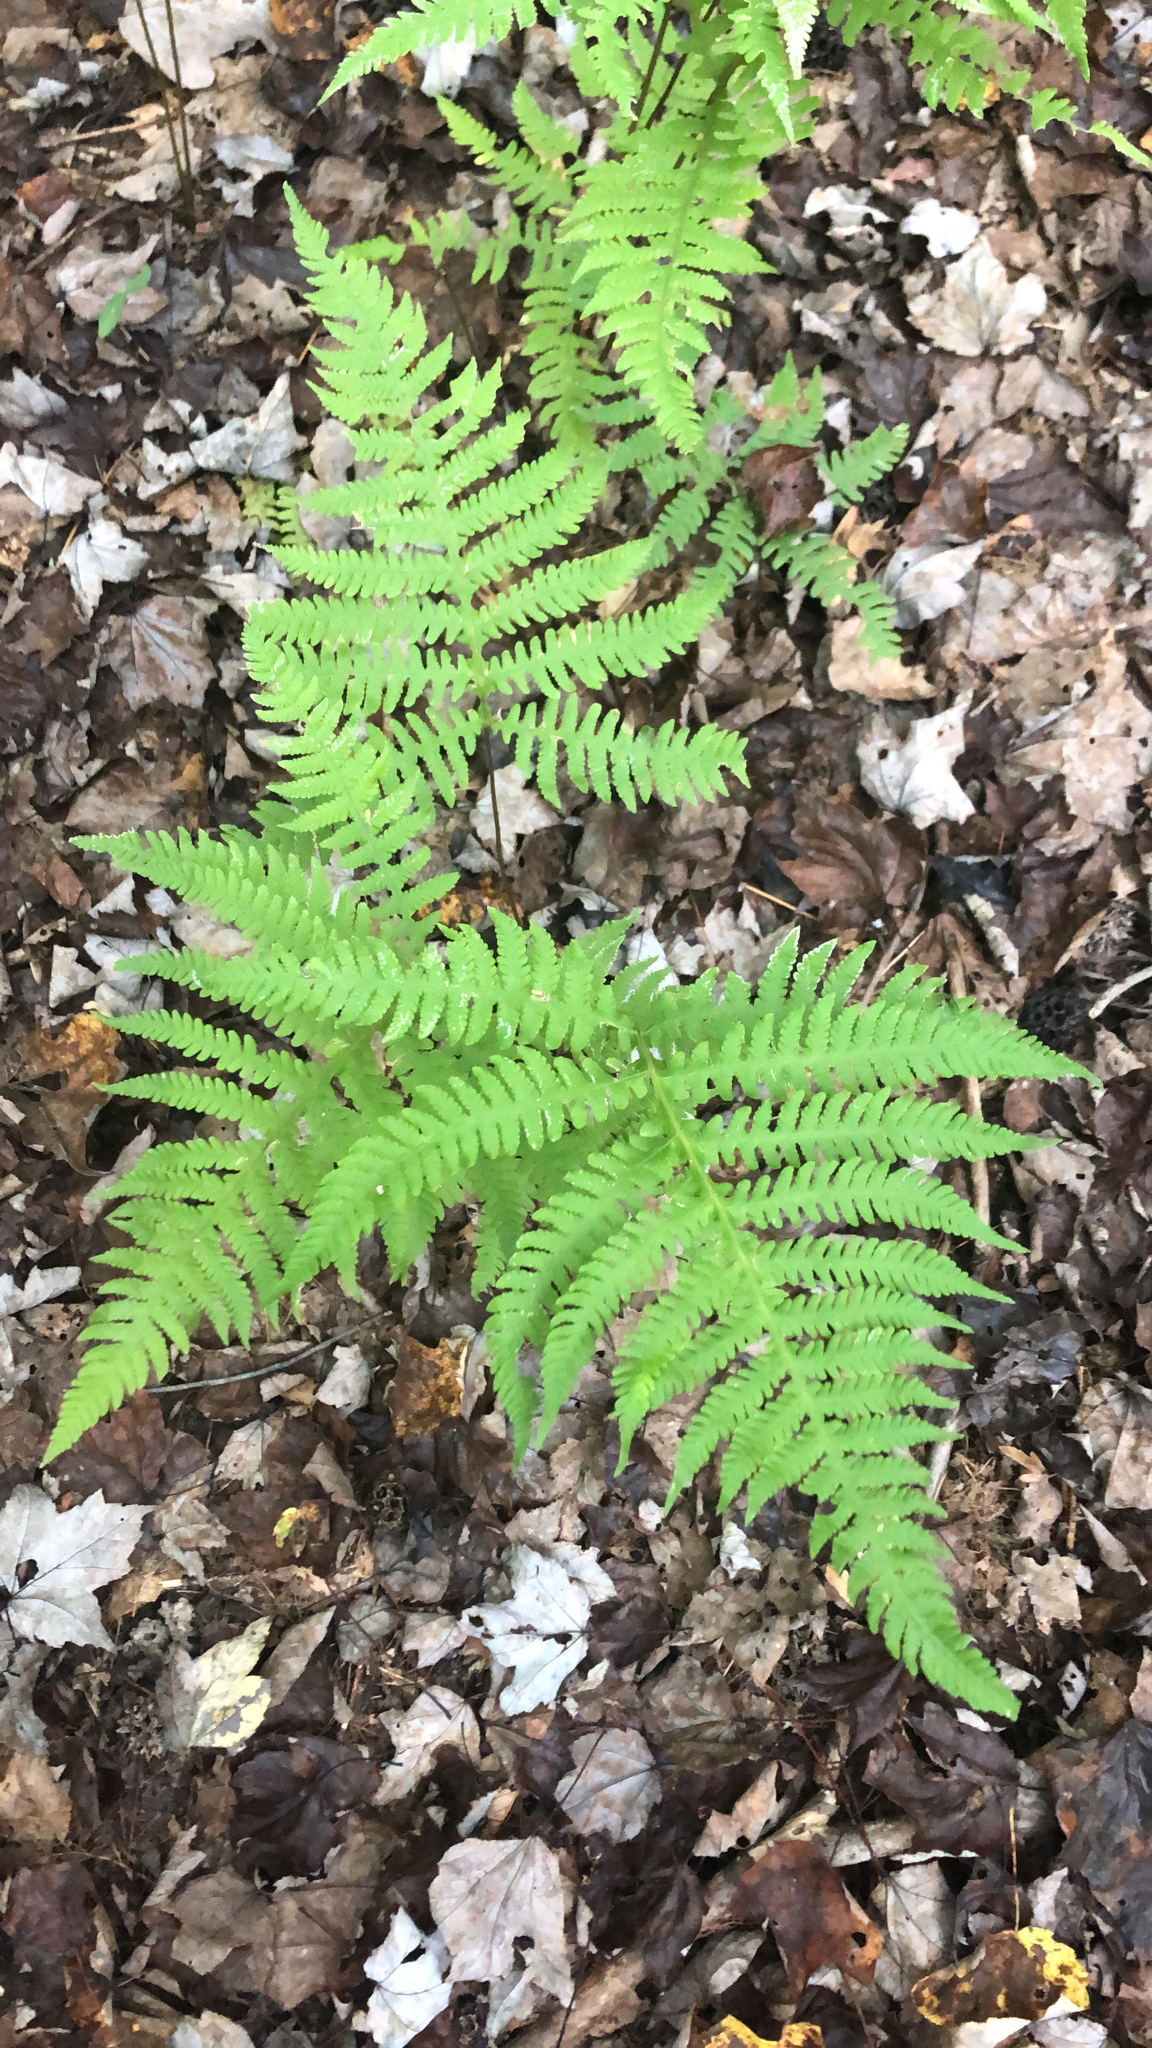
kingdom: Plantae
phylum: Tracheophyta
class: Polypodiopsida
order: Polypodiales
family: Thelypteridaceae
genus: Phegopteris
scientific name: Phegopteris hexagonoptera
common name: Broad beech fern
